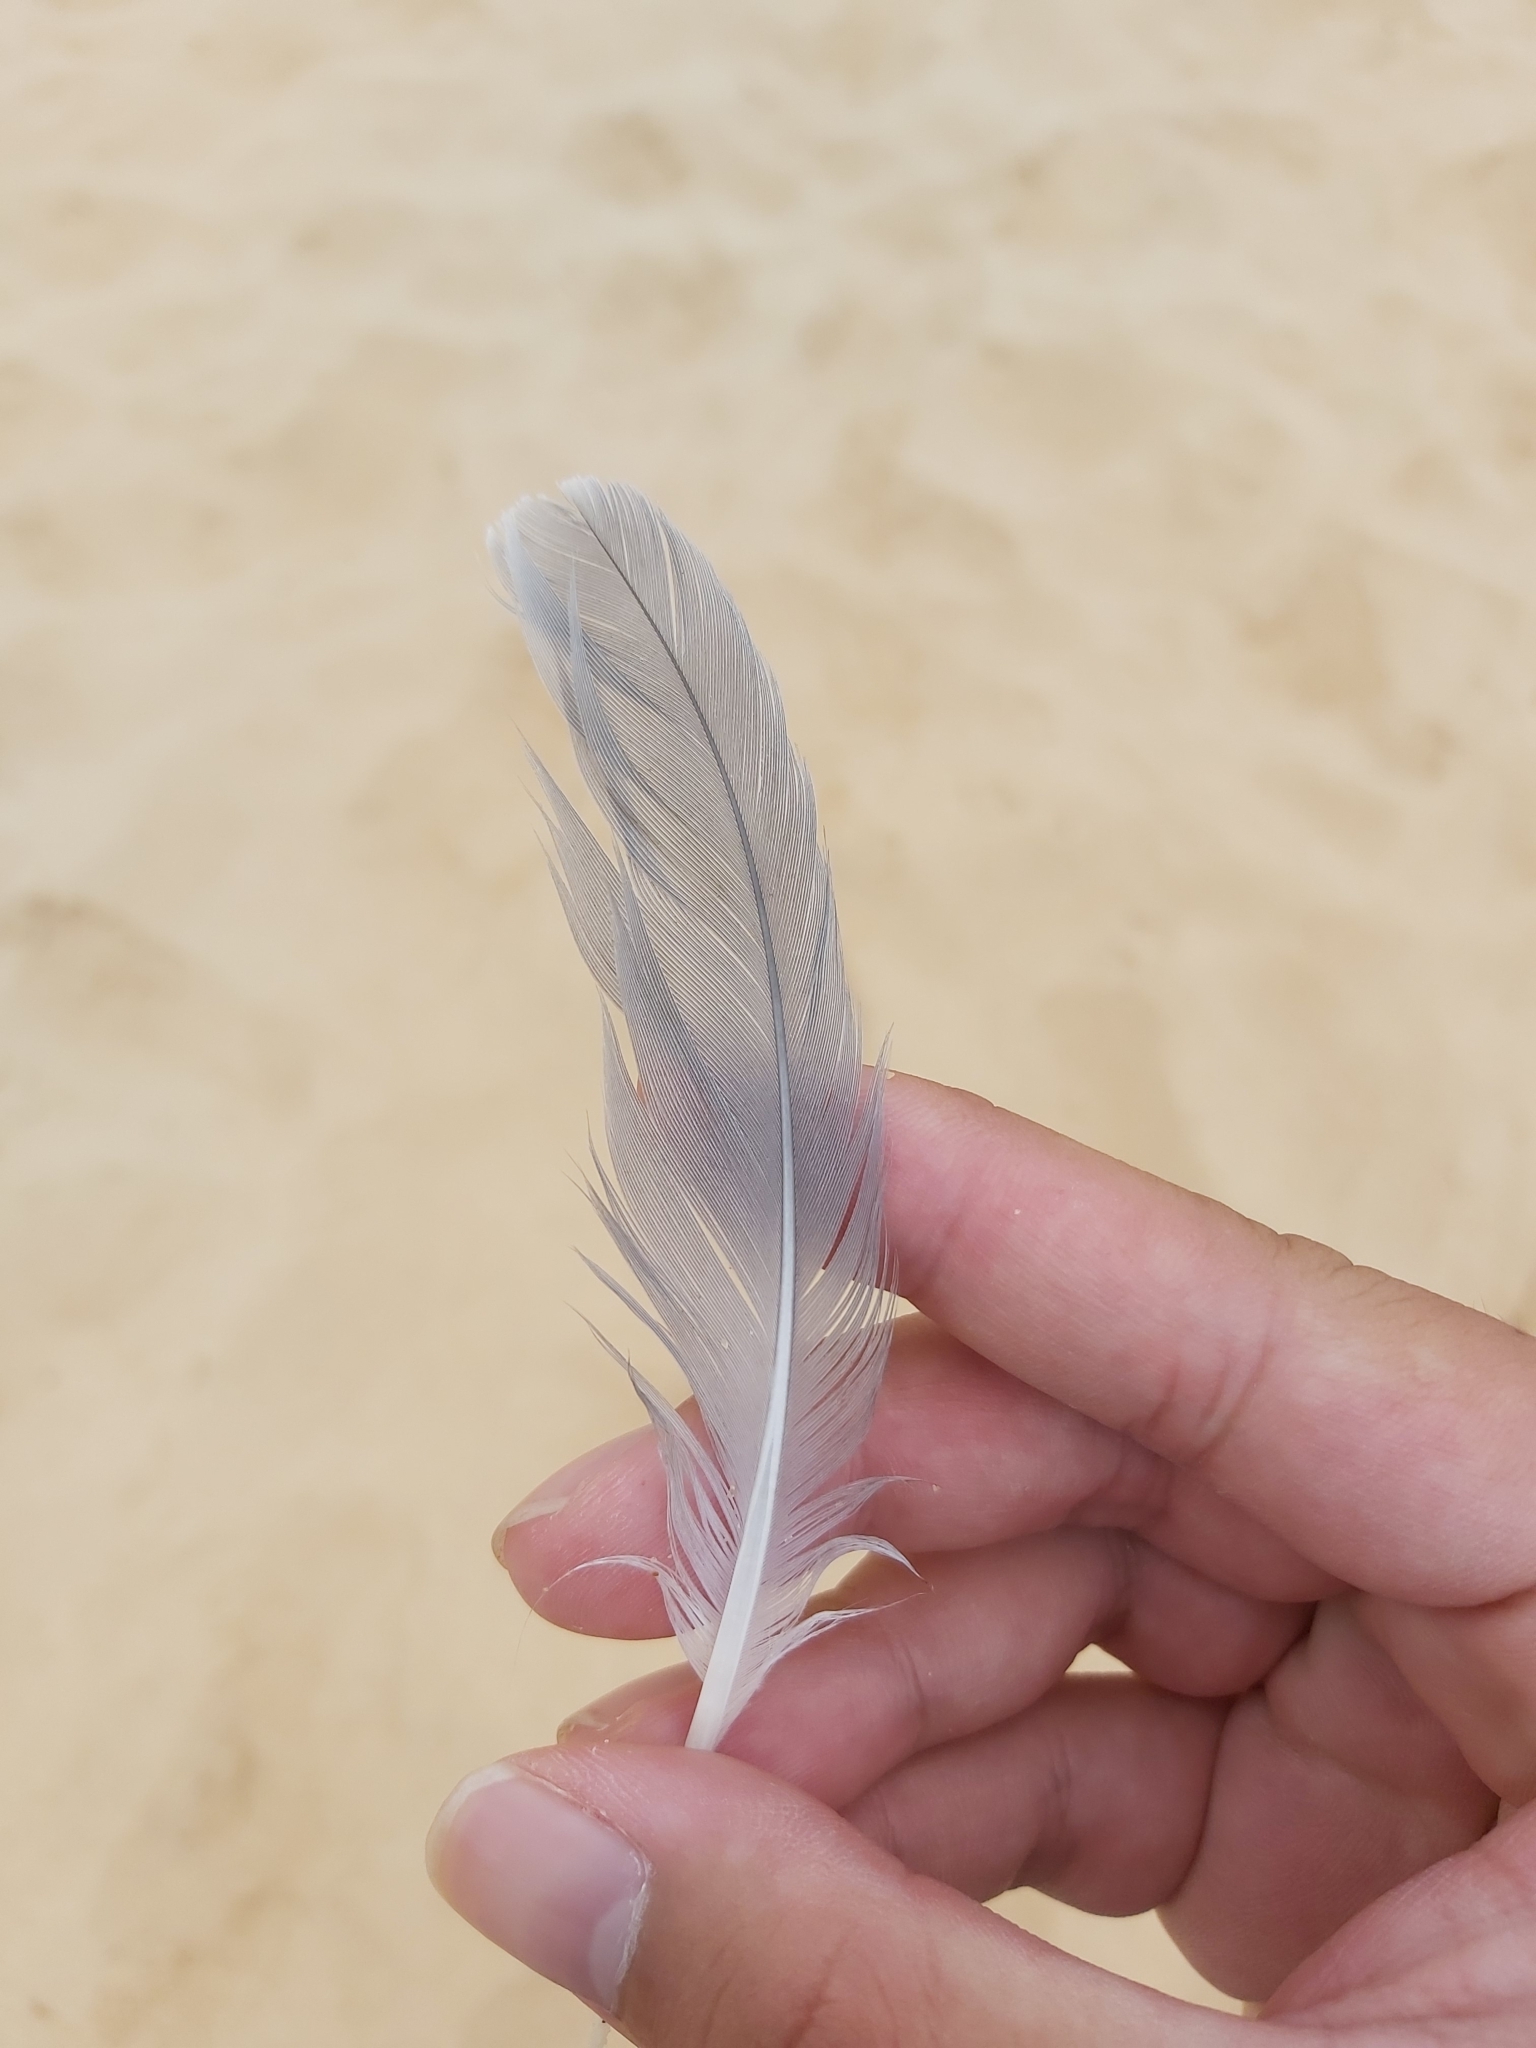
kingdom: Animalia
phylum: Chordata
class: Aves
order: Charadriiformes
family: Laridae
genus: Chroicocephalus
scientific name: Chroicocephalus novaehollandiae
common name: Silver gull
